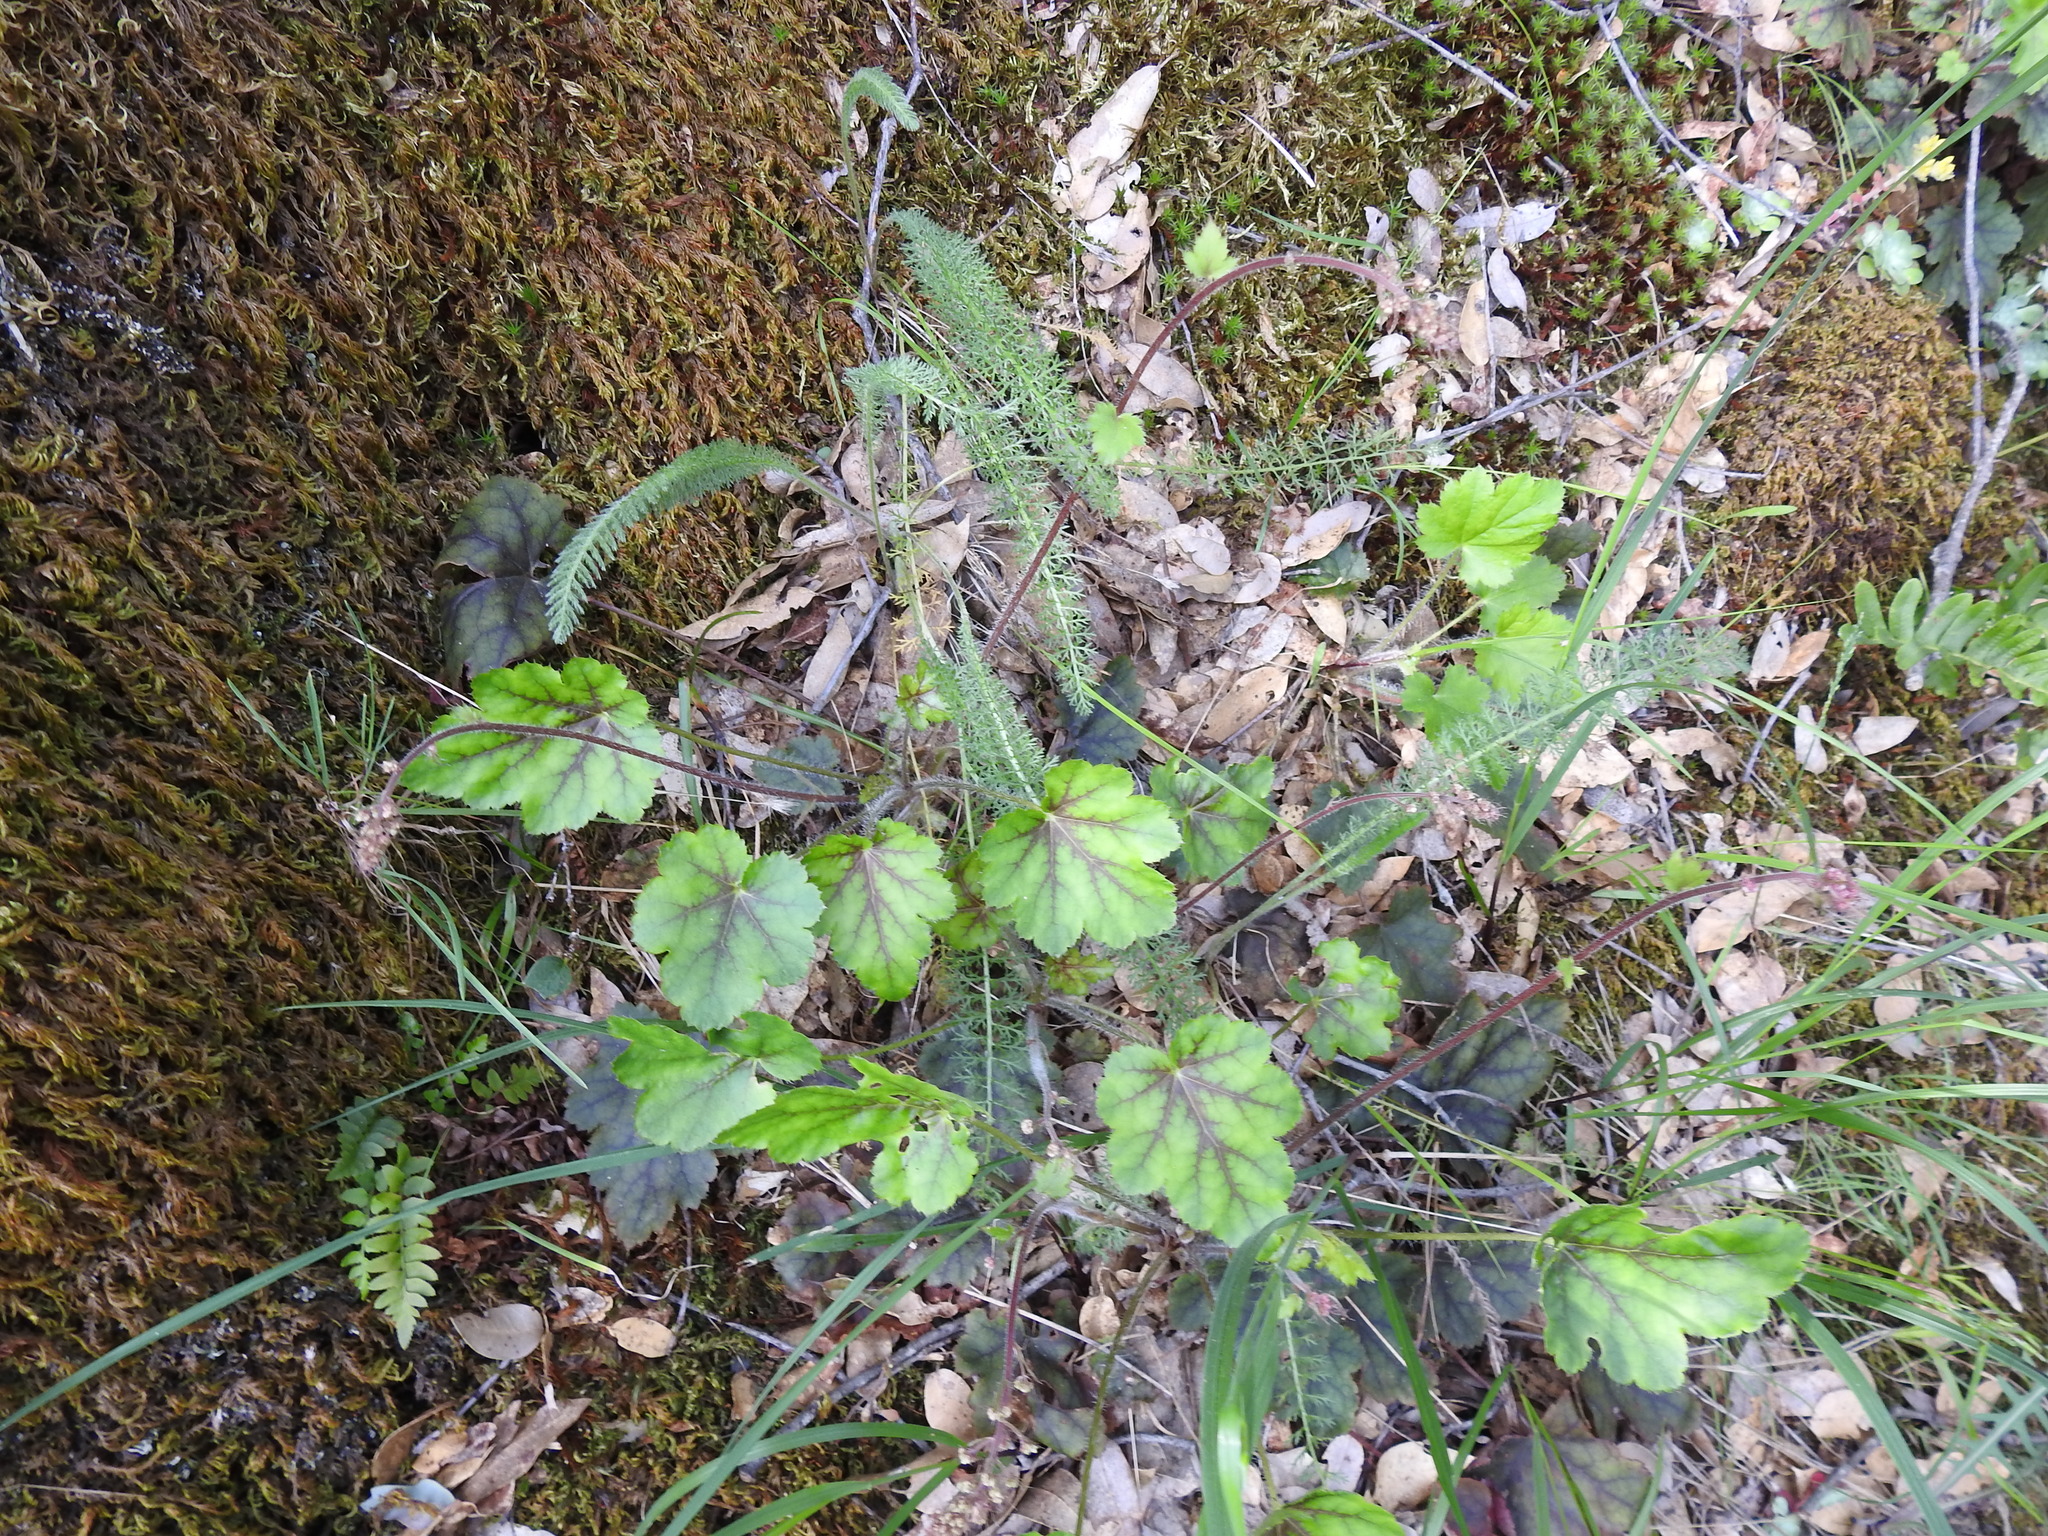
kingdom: Plantae
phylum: Tracheophyta
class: Magnoliopsida
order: Saxifragales
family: Saxifragaceae
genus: Heuchera
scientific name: Heuchera micrantha
